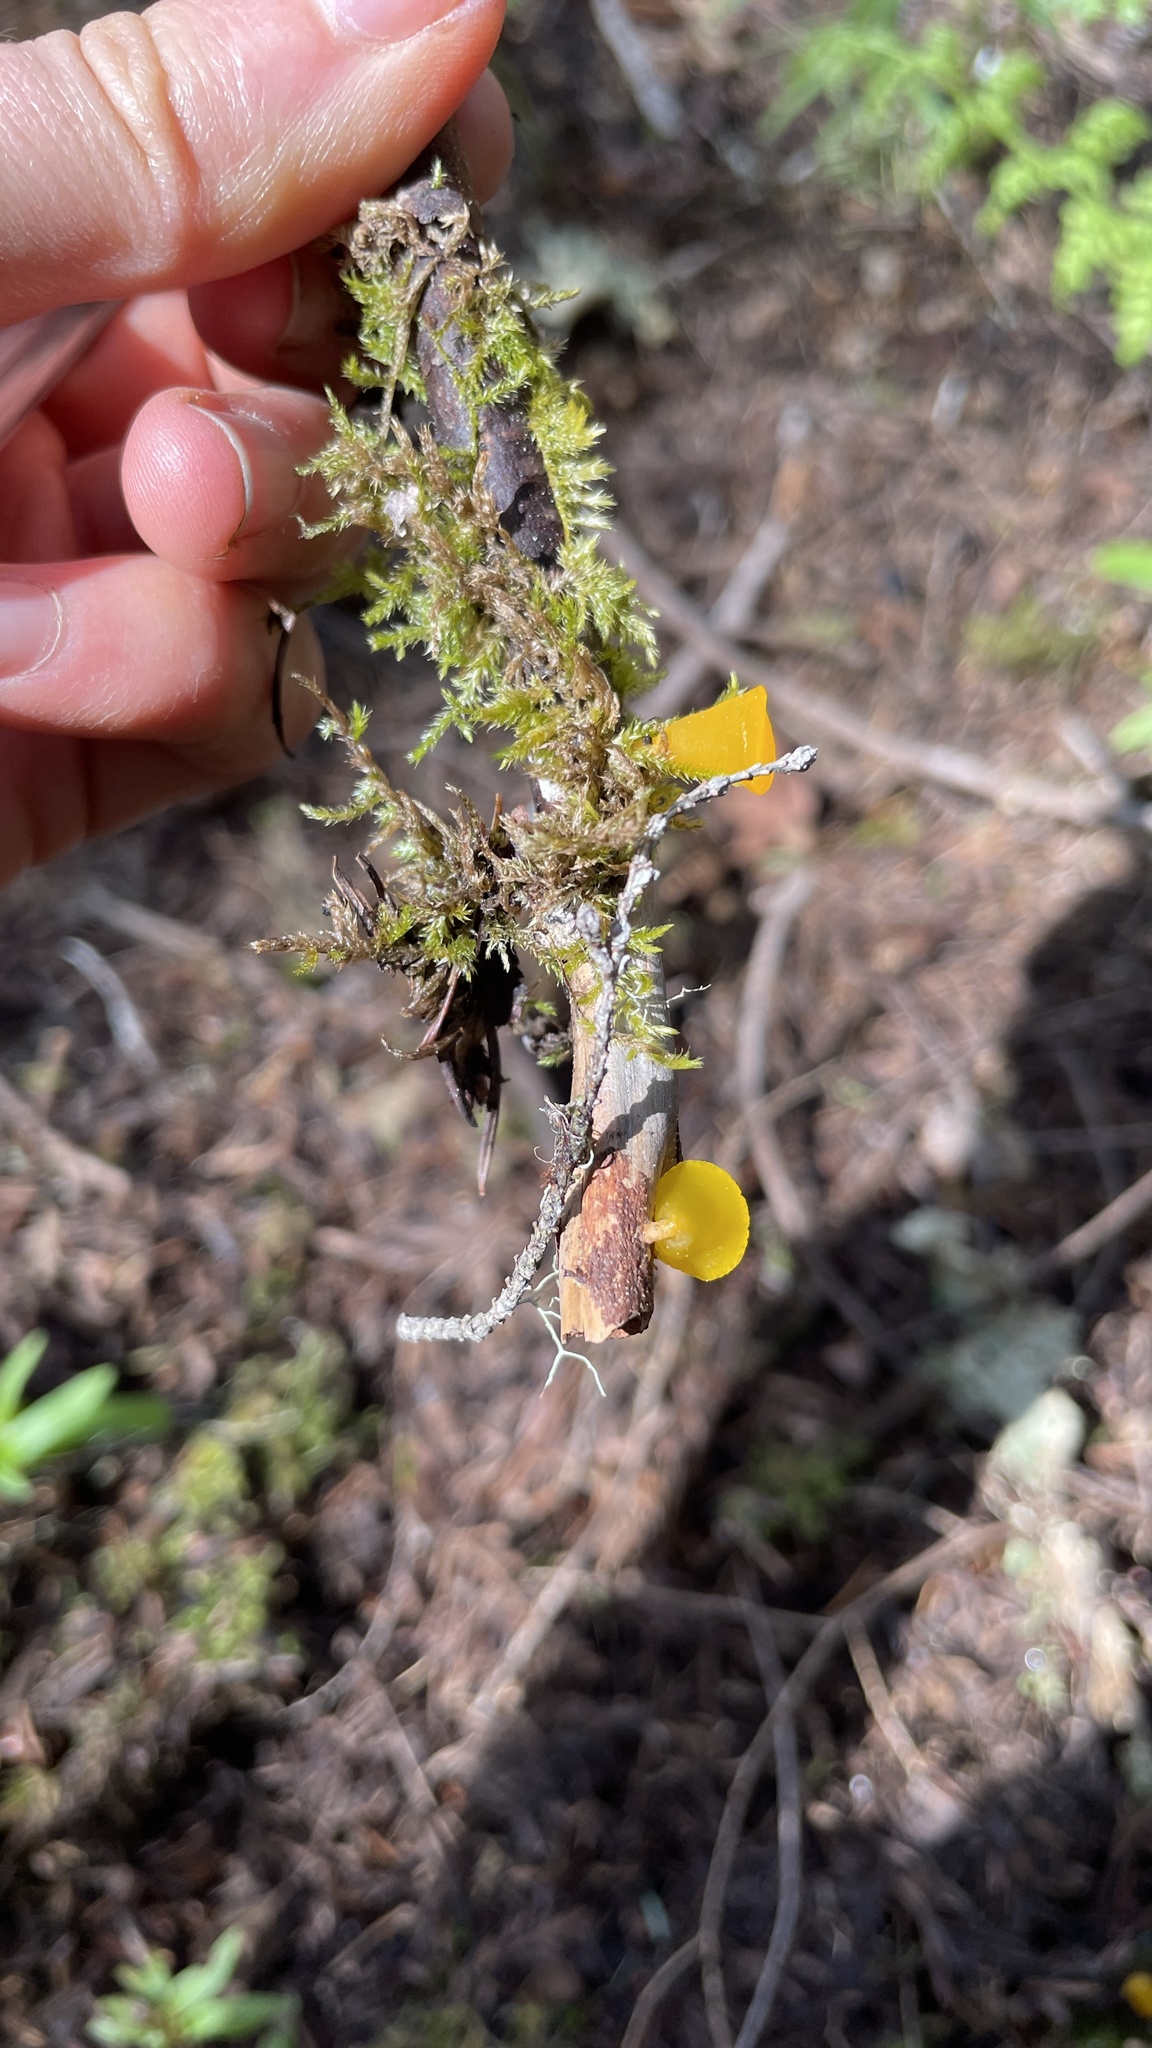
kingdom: Fungi
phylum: Basidiomycota
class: Dacrymycetes
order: Dacrymycetales
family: Dacrymycetaceae
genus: Guepiniopsis
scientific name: Guepiniopsis alpina
